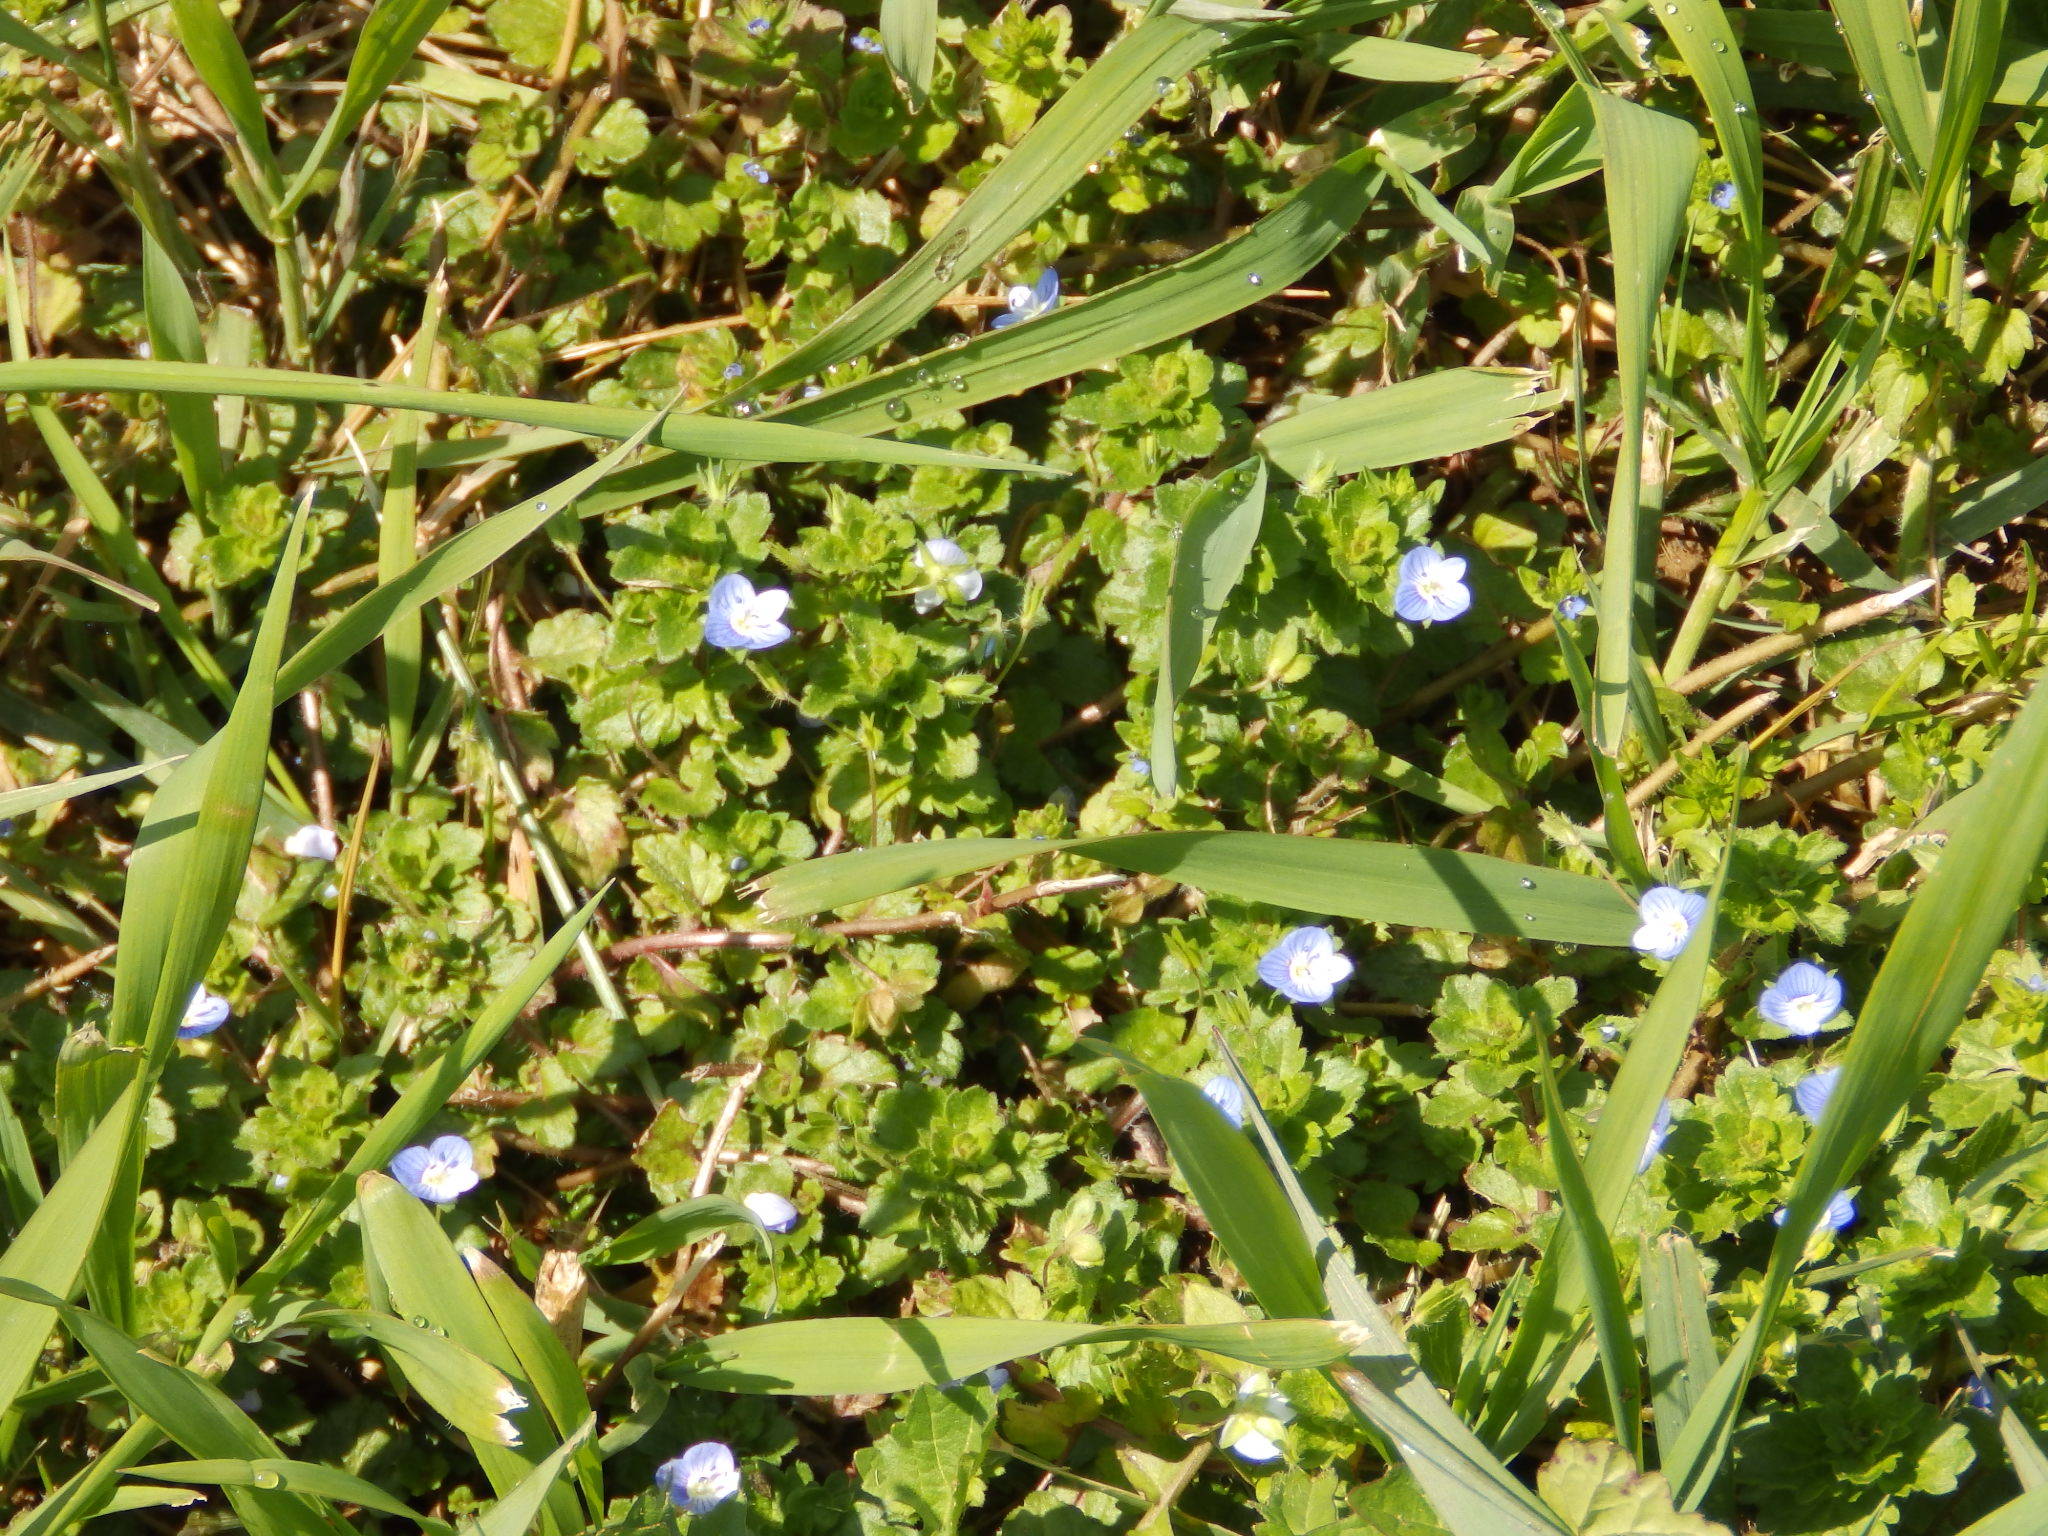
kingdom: Plantae
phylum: Tracheophyta
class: Magnoliopsida
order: Lamiales
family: Plantaginaceae
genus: Veronica
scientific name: Veronica persica
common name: Common field-speedwell
